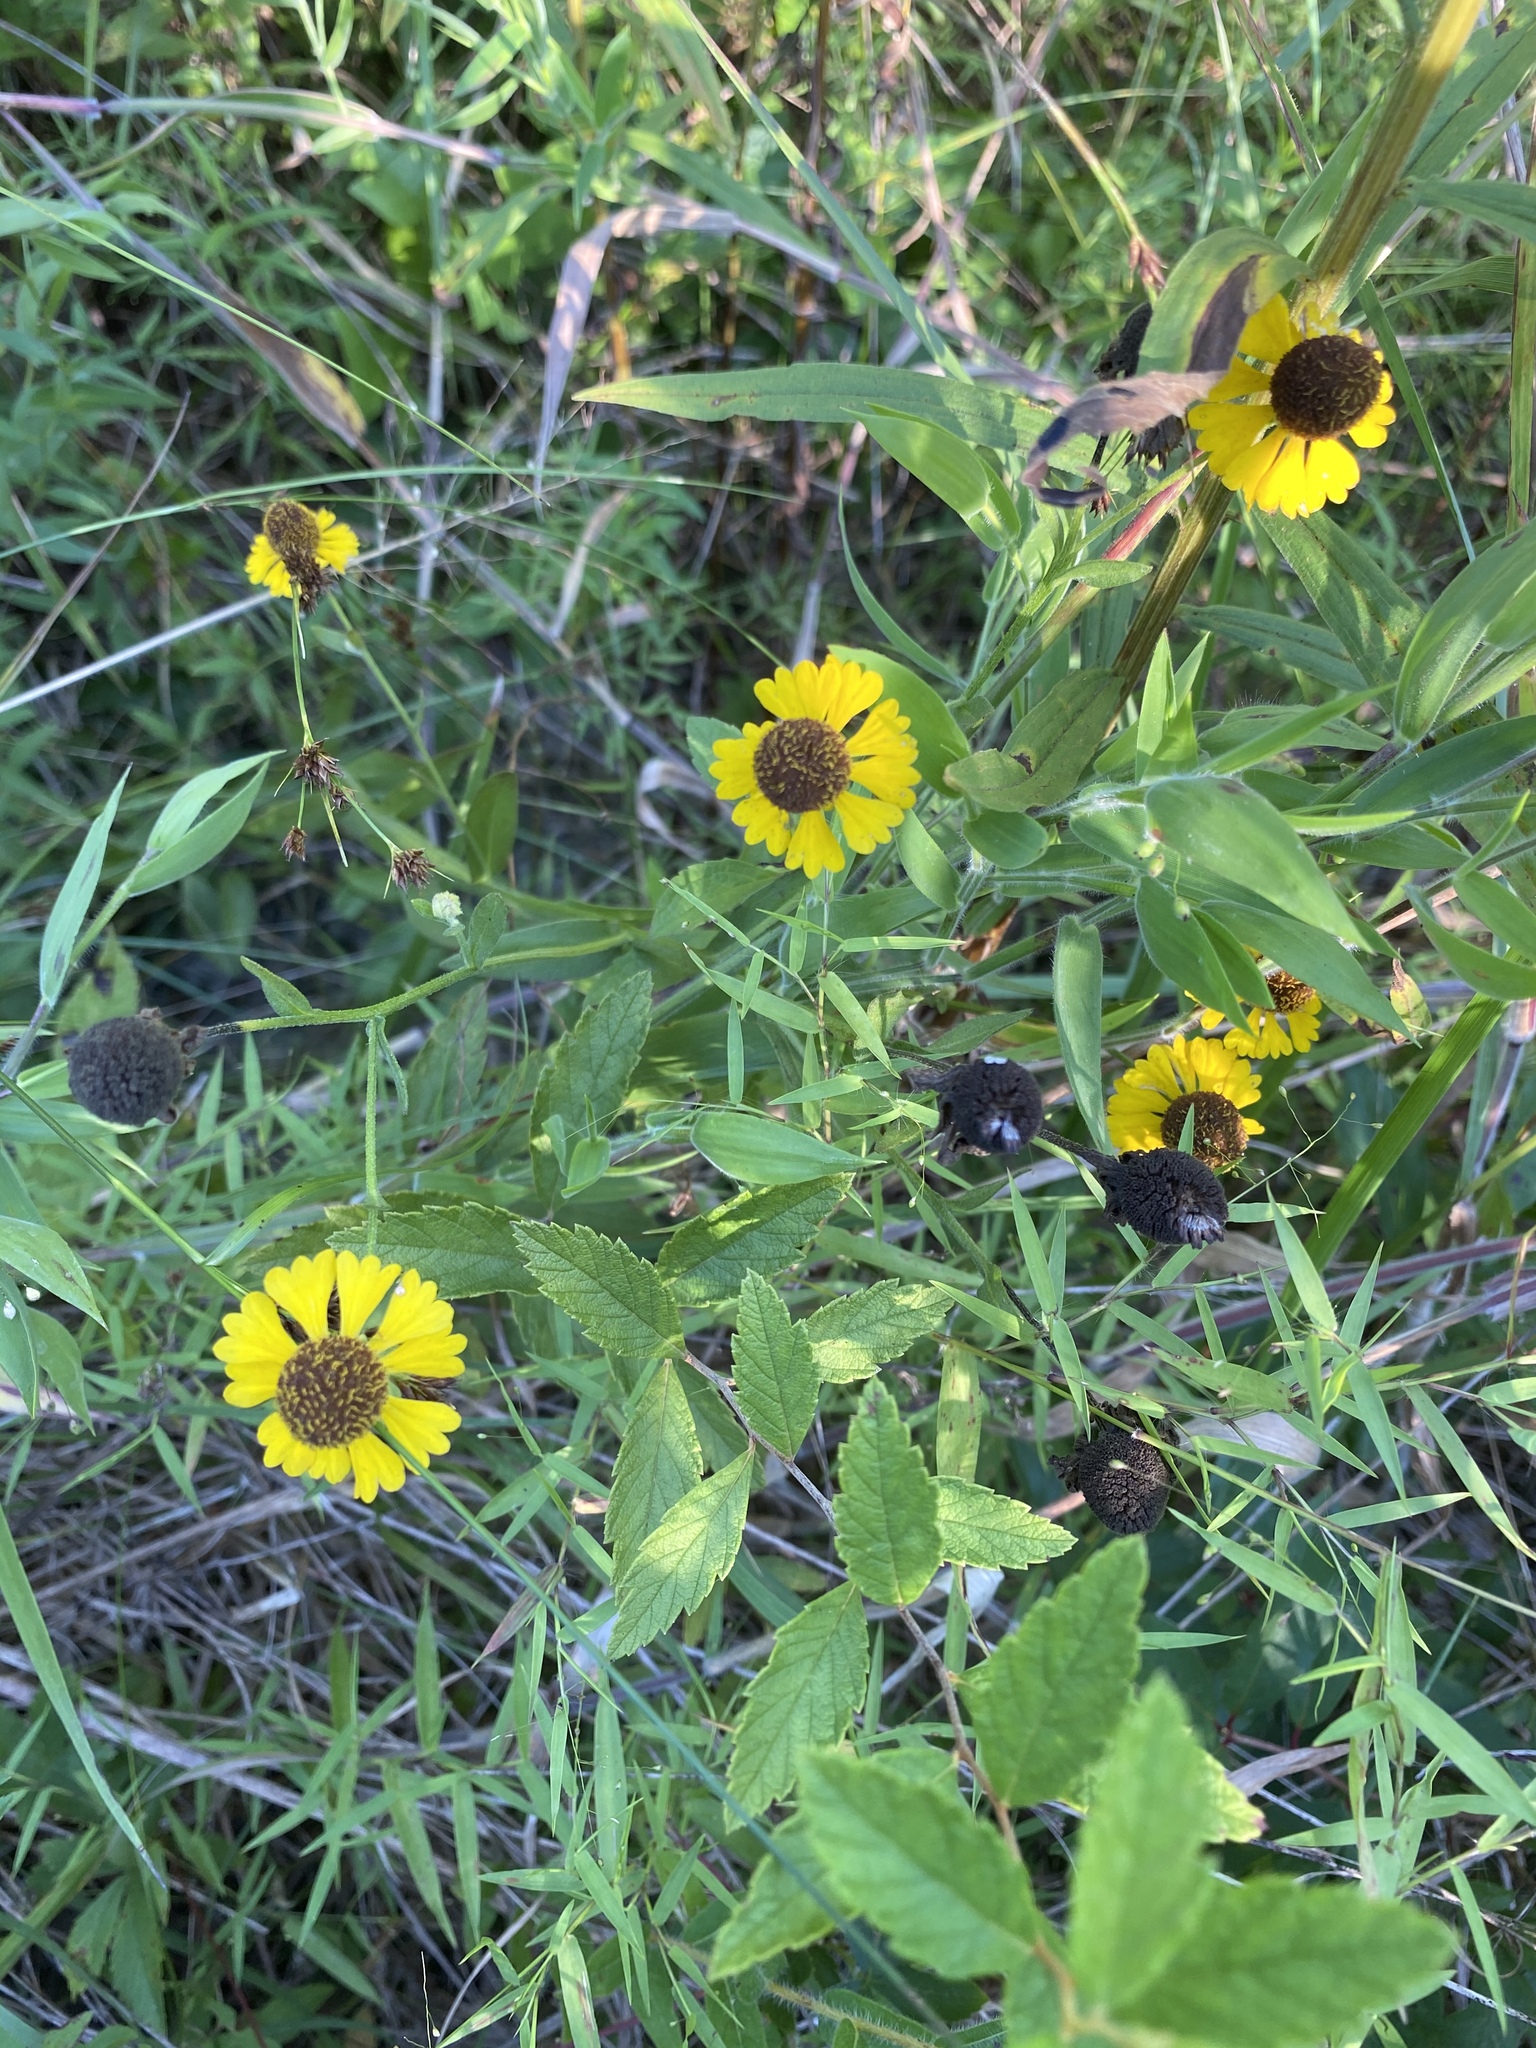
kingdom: Plantae
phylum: Tracheophyta
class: Magnoliopsida
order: Asterales
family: Asteraceae
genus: Helenium
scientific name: Helenium flexuosum
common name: Naked-flowered sneezeweed
